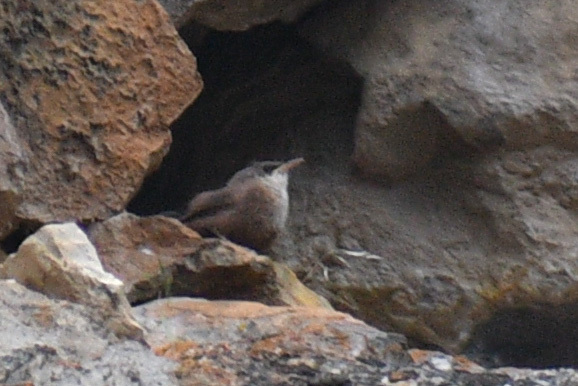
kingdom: Animalia
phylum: Chordata
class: Aves
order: Passeriformes
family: Troglodytidae
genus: Catherpes
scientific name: Catherpes mexicanus
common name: Canyon wren
